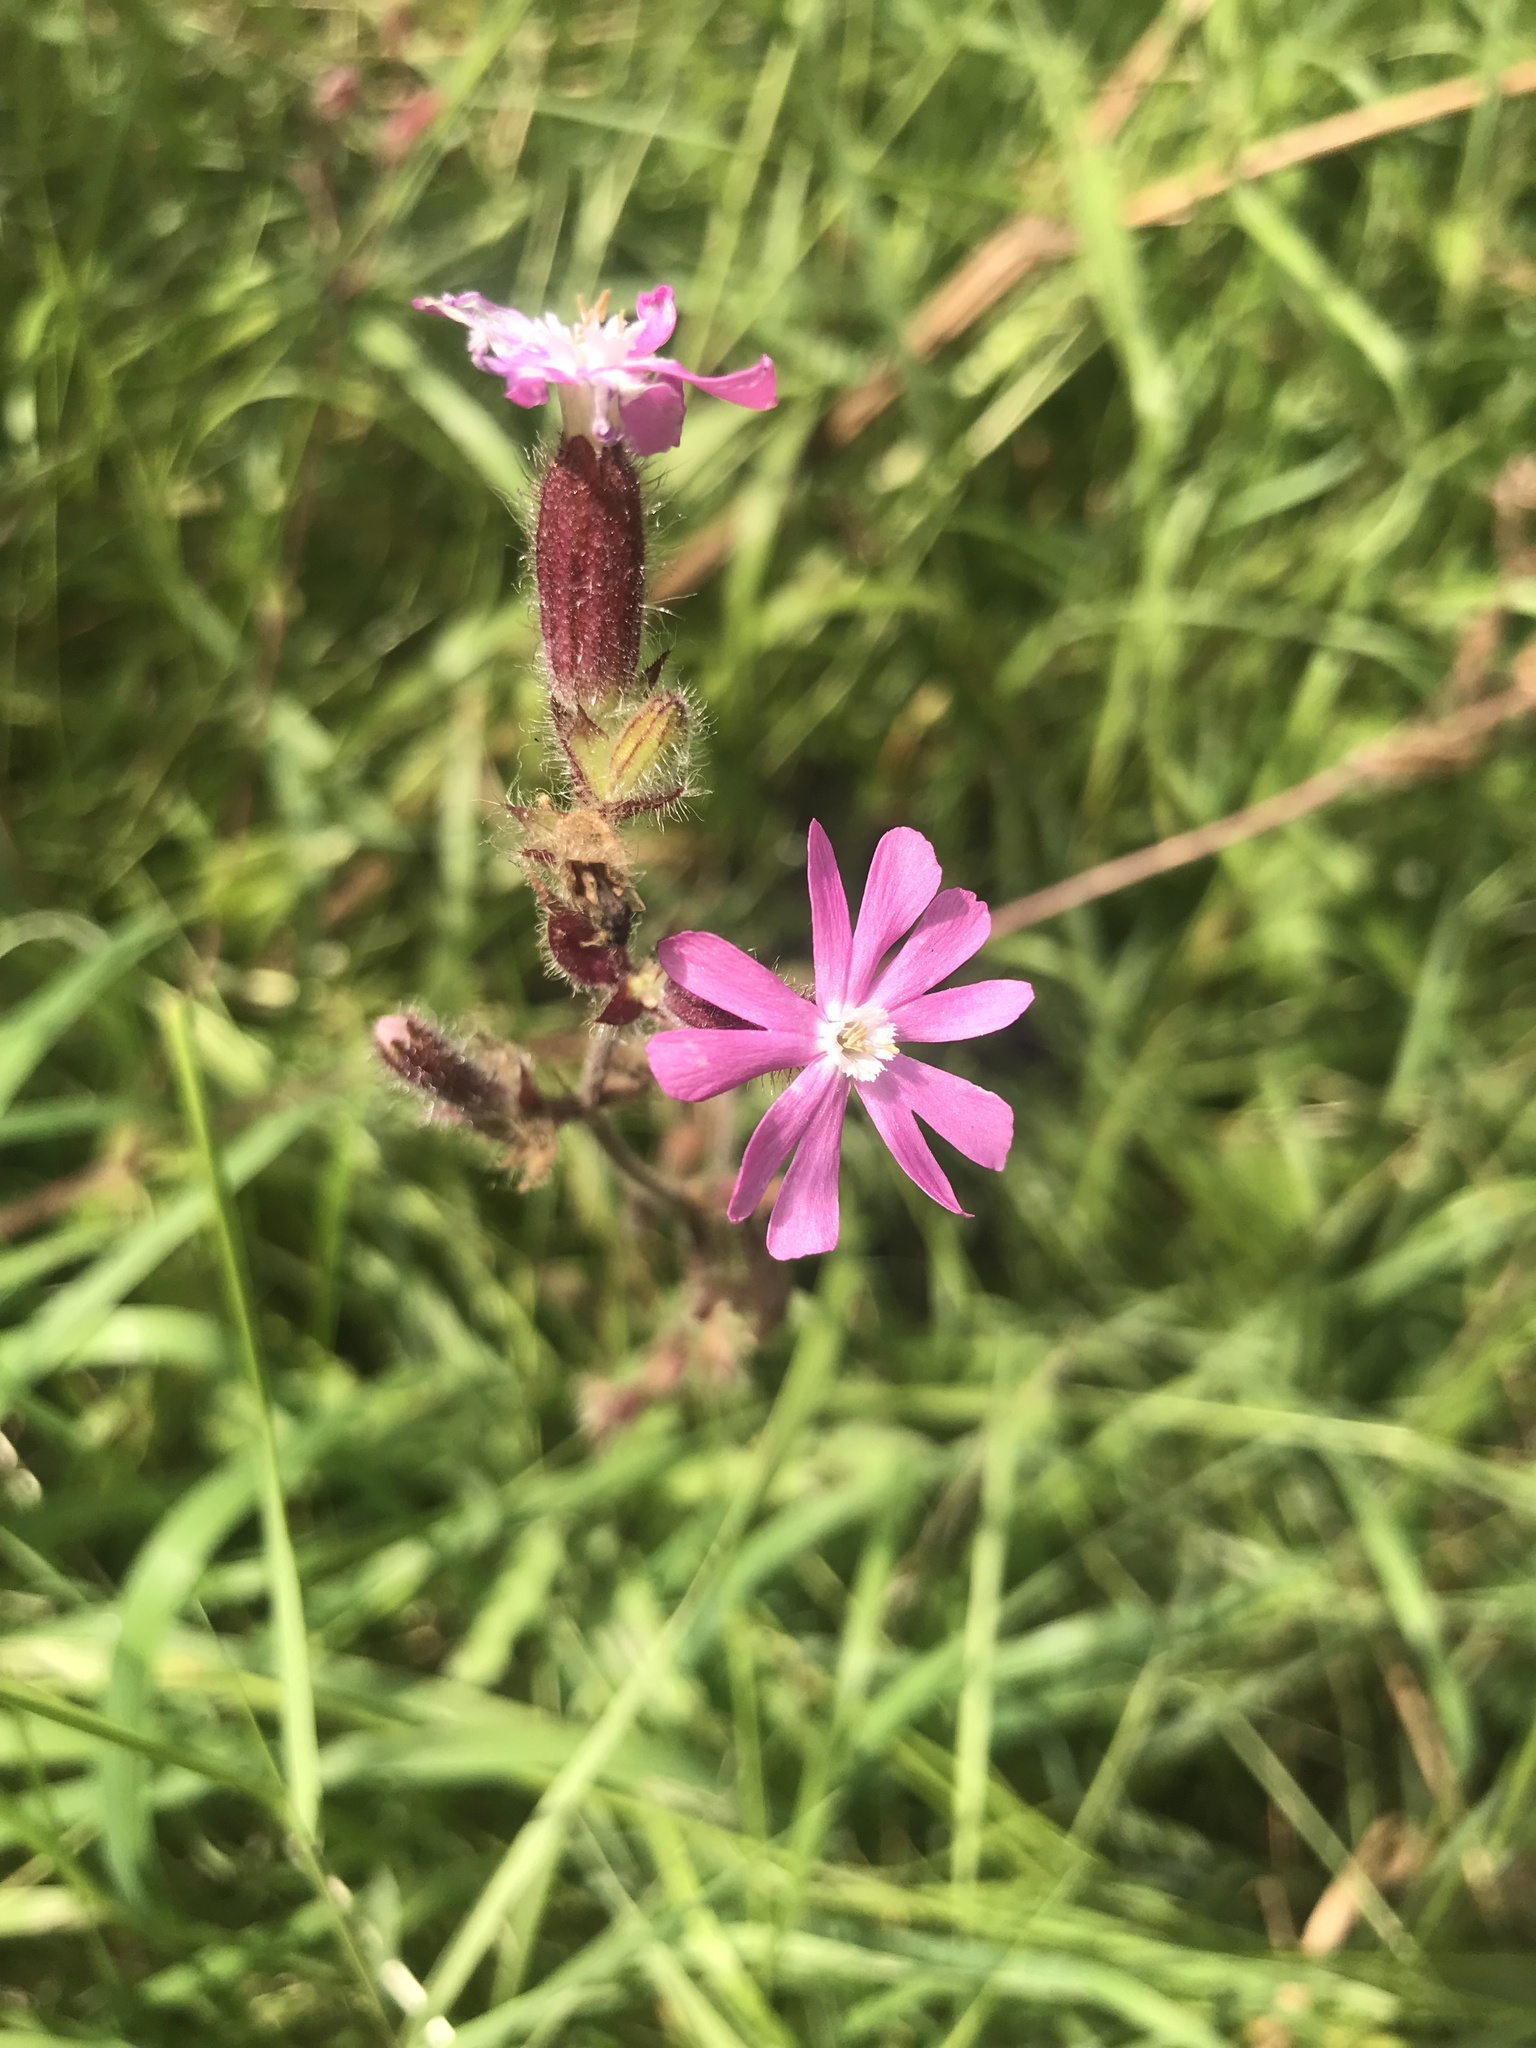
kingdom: Plantae
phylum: Tracheophyta
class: Magnoliopsida
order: Caryophyllales
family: Caryophyllaceae
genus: Silene
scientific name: Silene dioica
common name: Red campion
